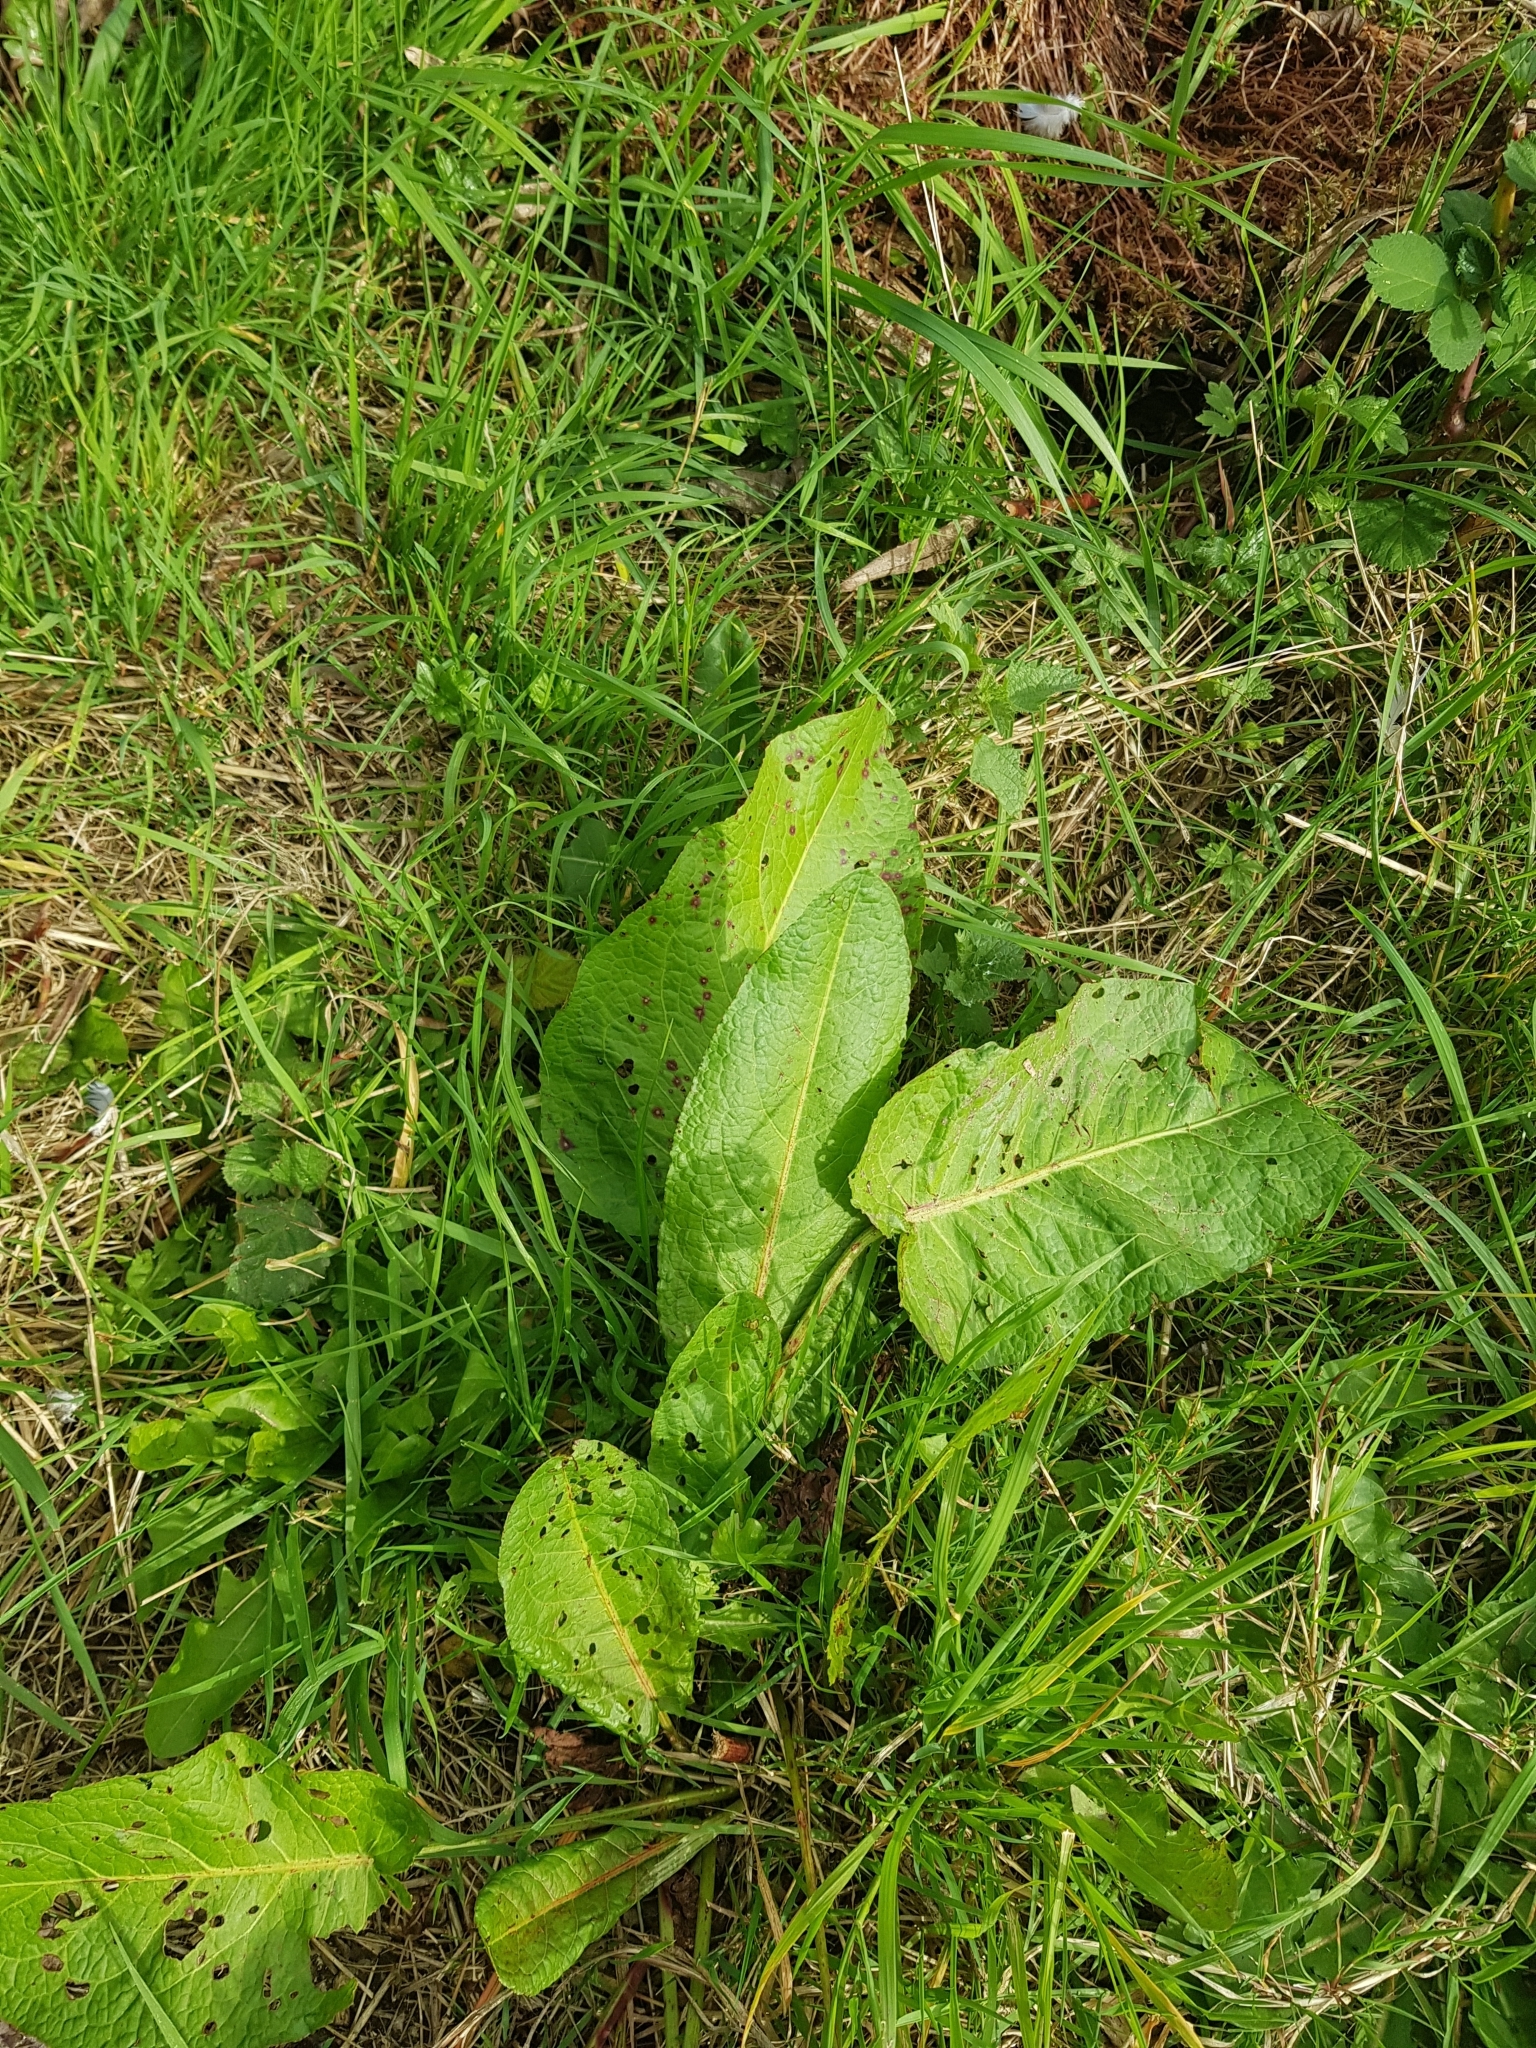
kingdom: Plantae
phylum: Tracheophyta
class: Magnoliopsida
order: Caryophyllales
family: Polygonaceae
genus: Rumex
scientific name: Rumex obtusifolius
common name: Bitter dock
